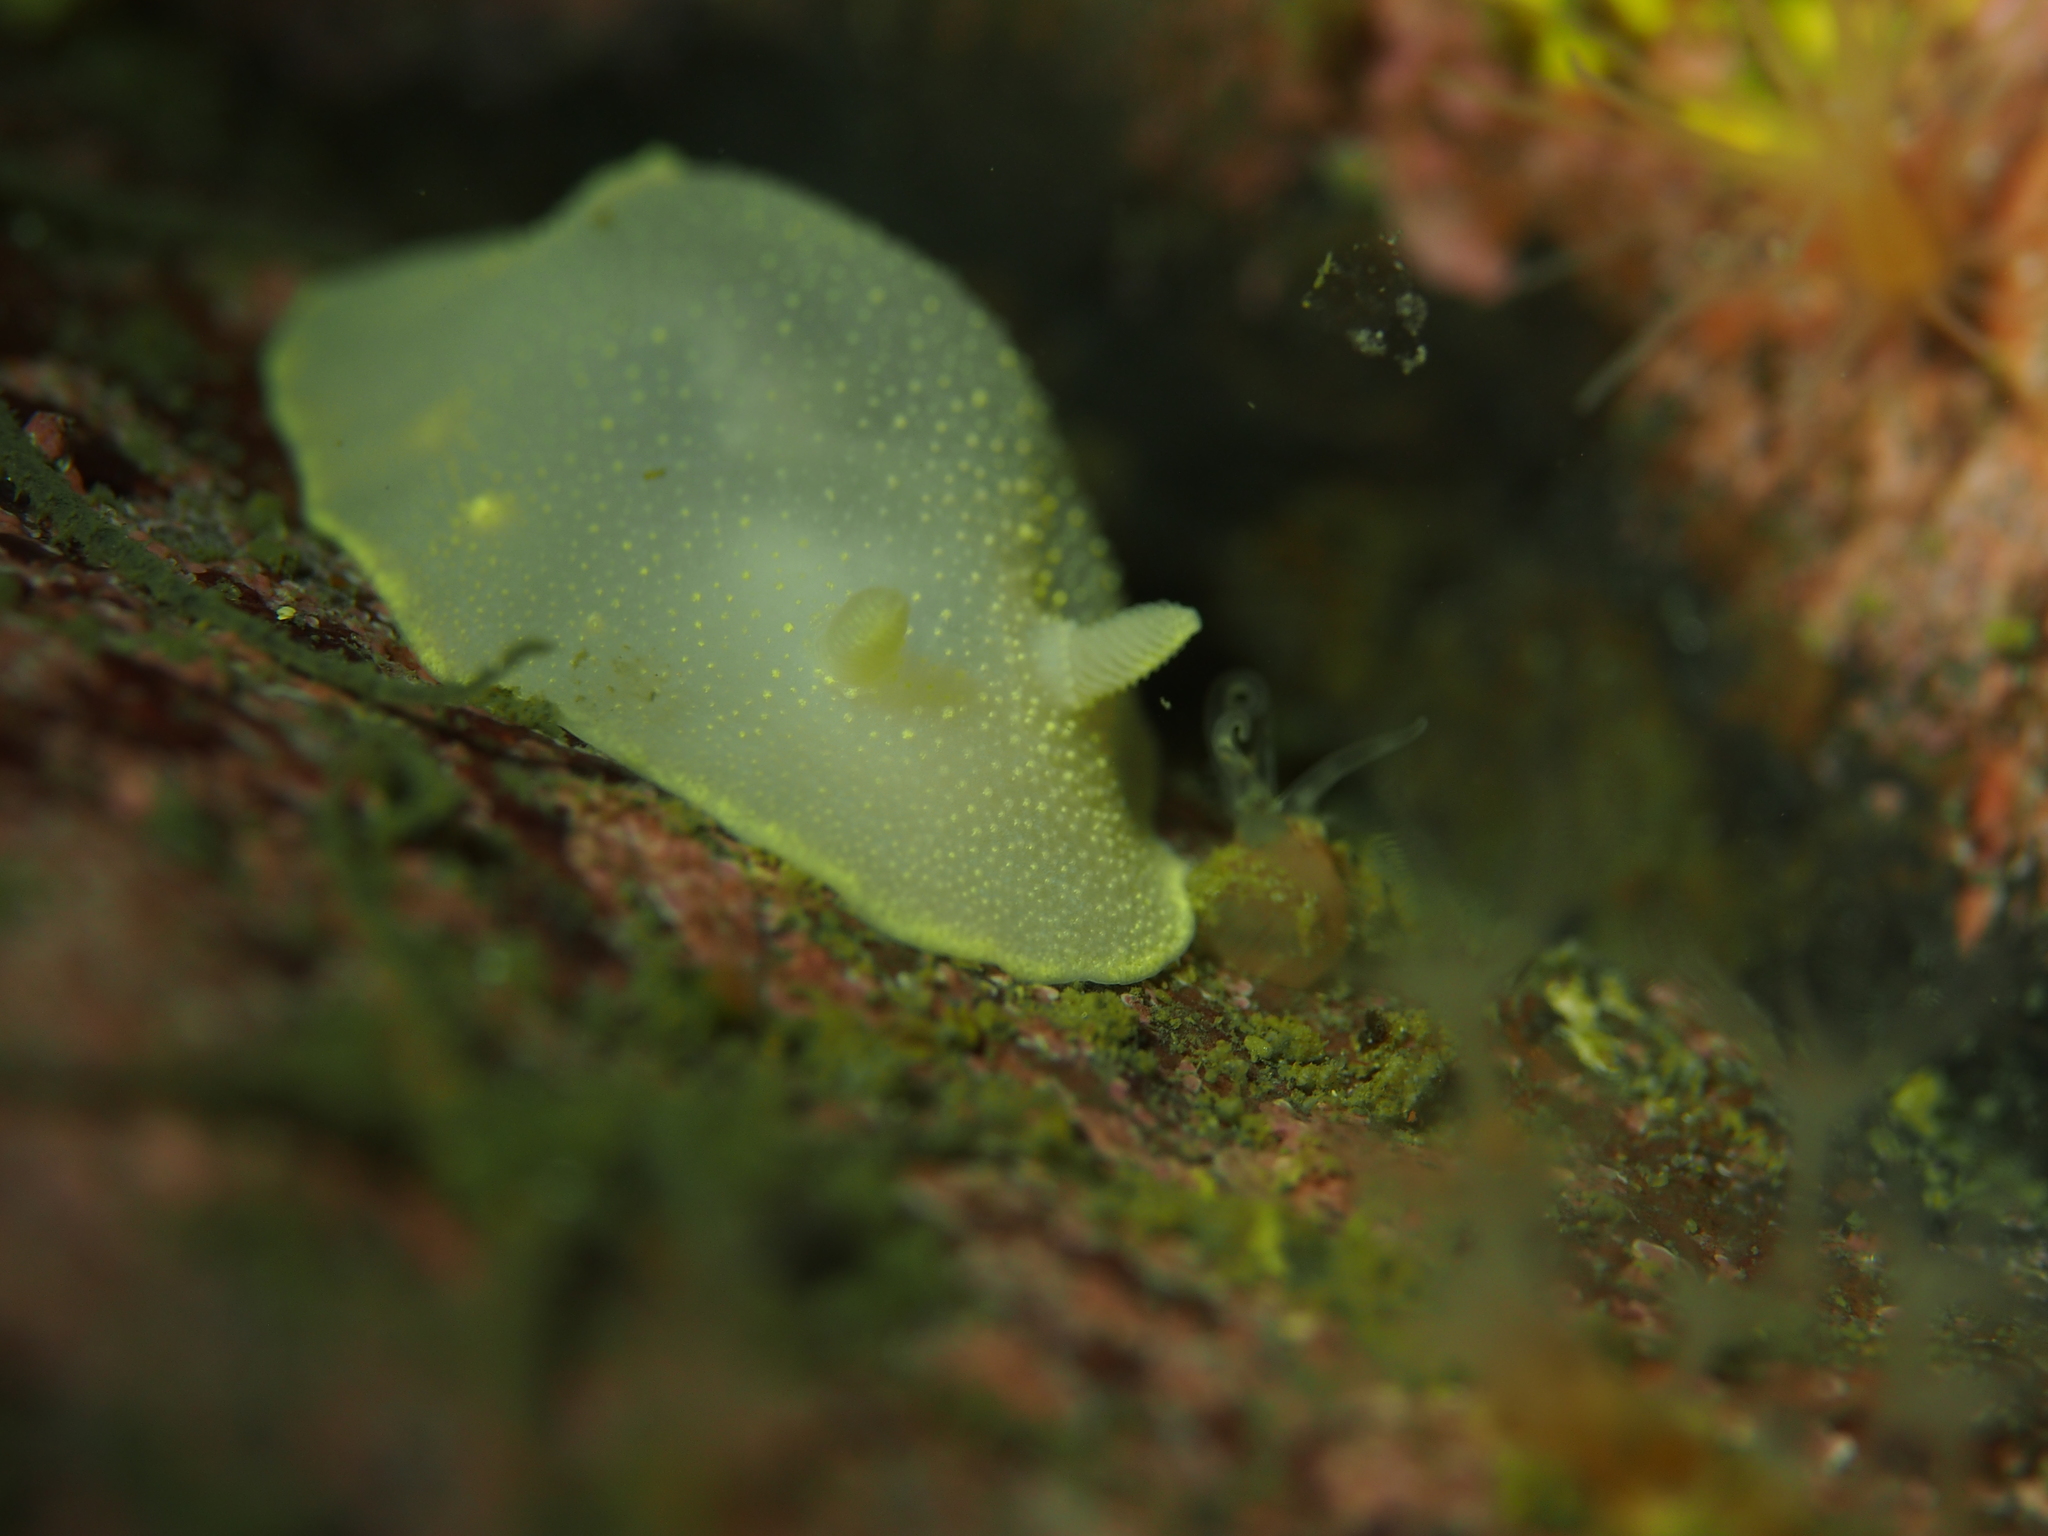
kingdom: Animalia
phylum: Mollusca
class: Gastropoda
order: Nudibranchia
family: Cadlinidae
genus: Cadlina
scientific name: Cadlina laevis
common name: White atlantic cadlina
